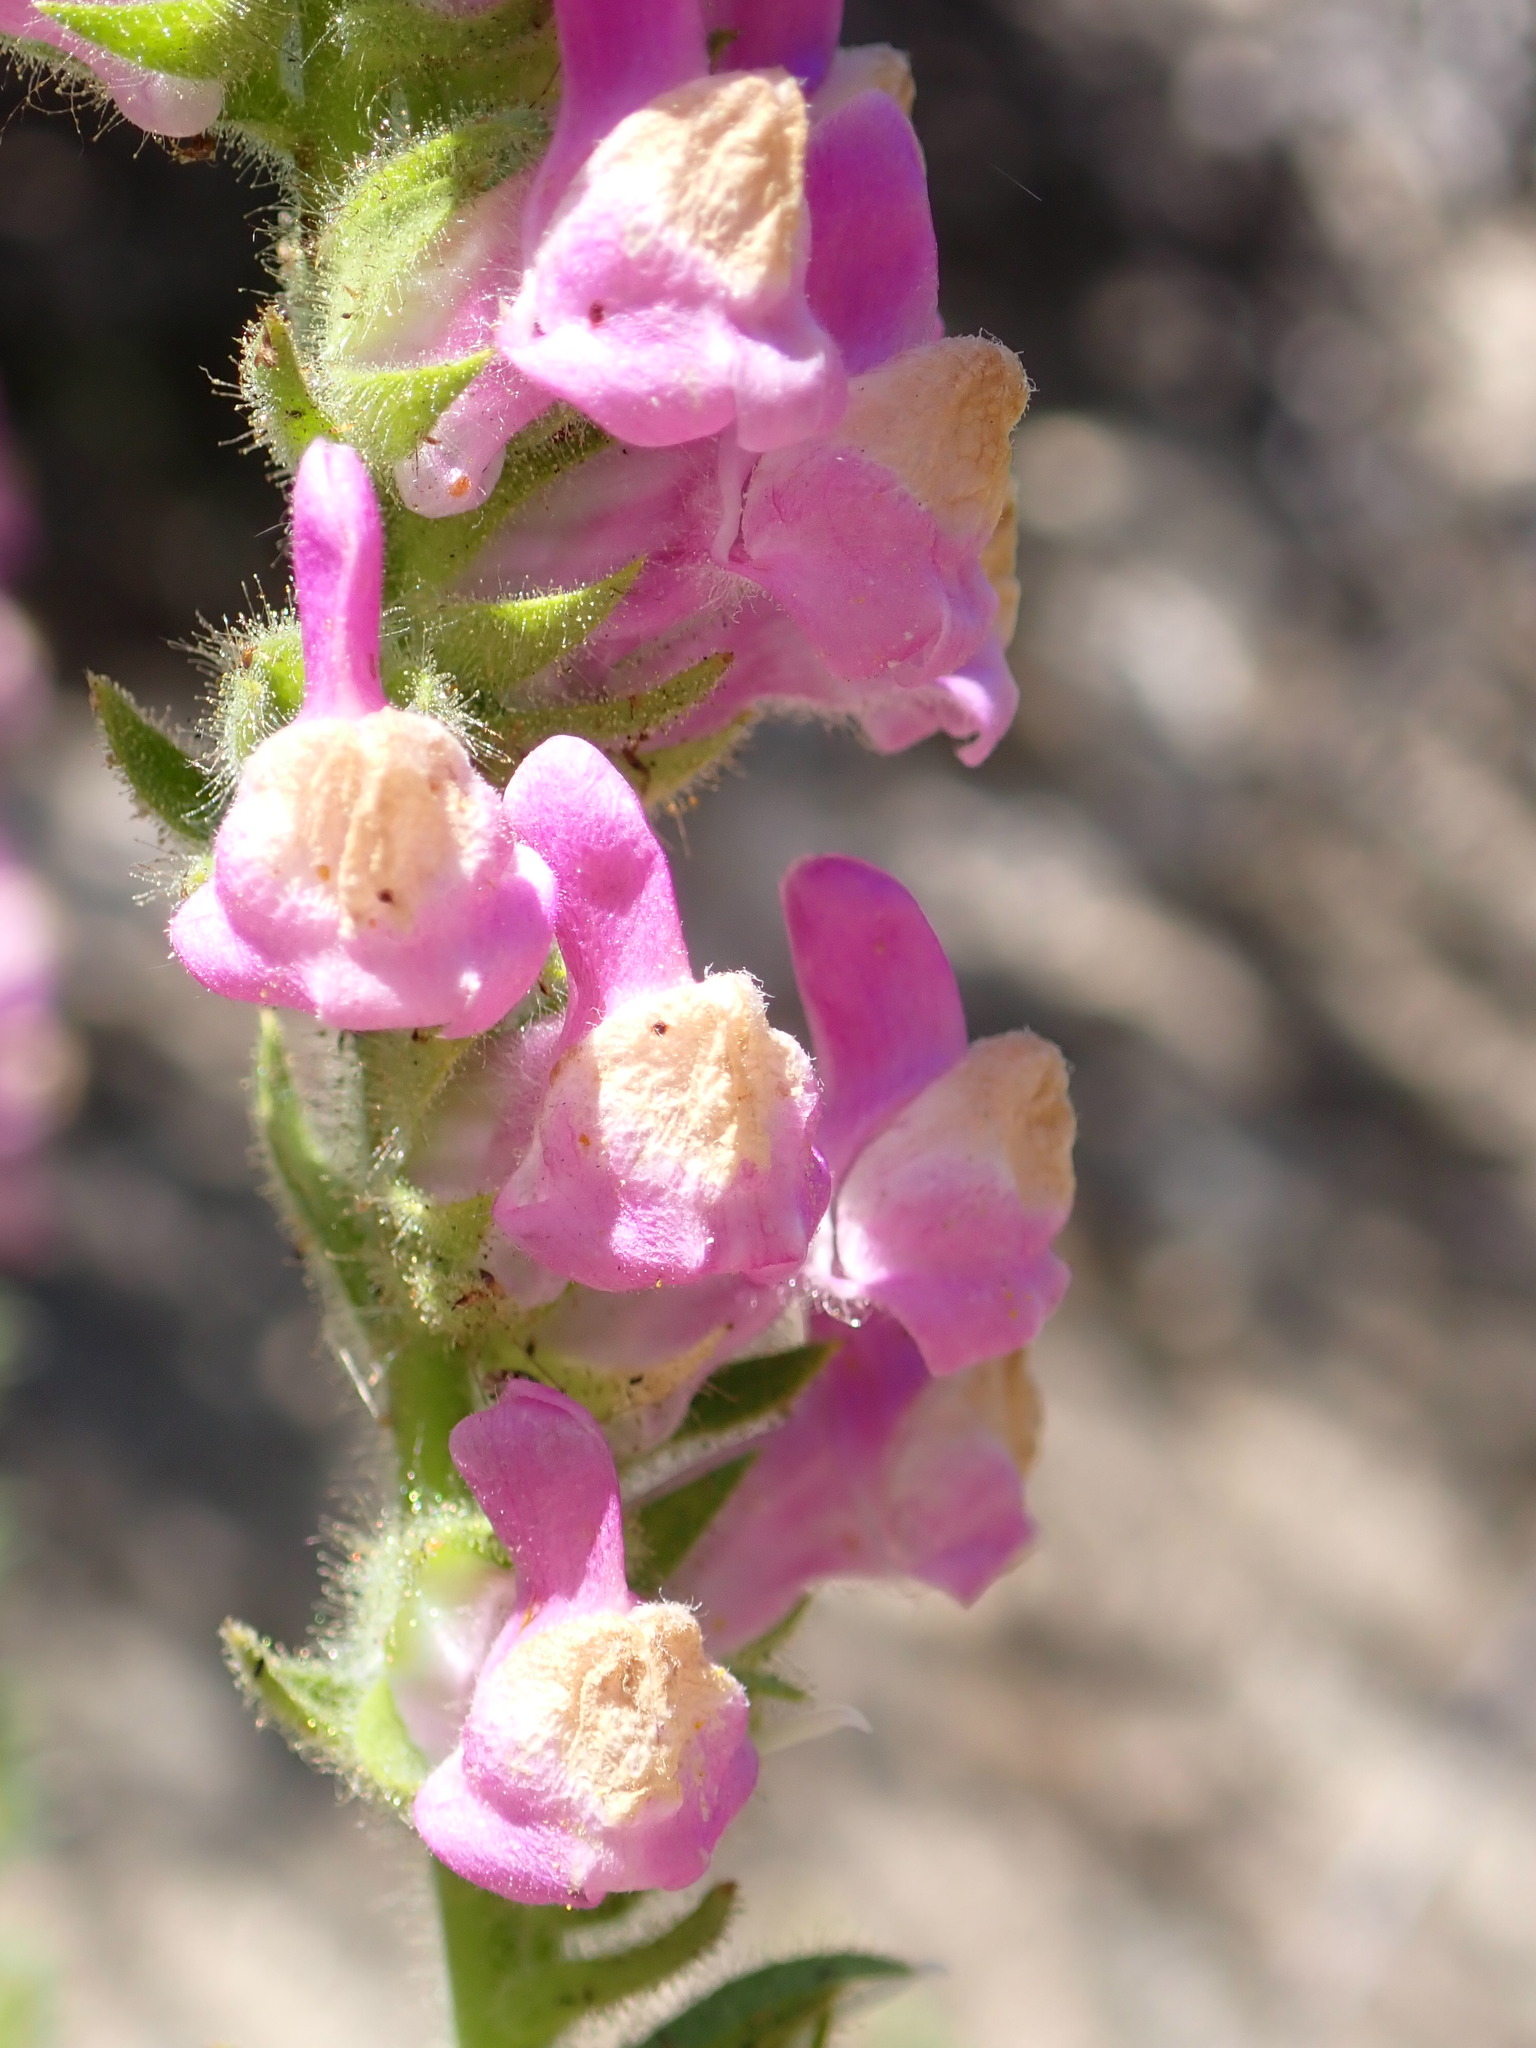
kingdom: Plantae
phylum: Tracheophyta
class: Magnoliopsida
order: Lamiales
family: Plantaginaceae
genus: Sairocarpus
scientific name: Sairocarpus multiflorus
